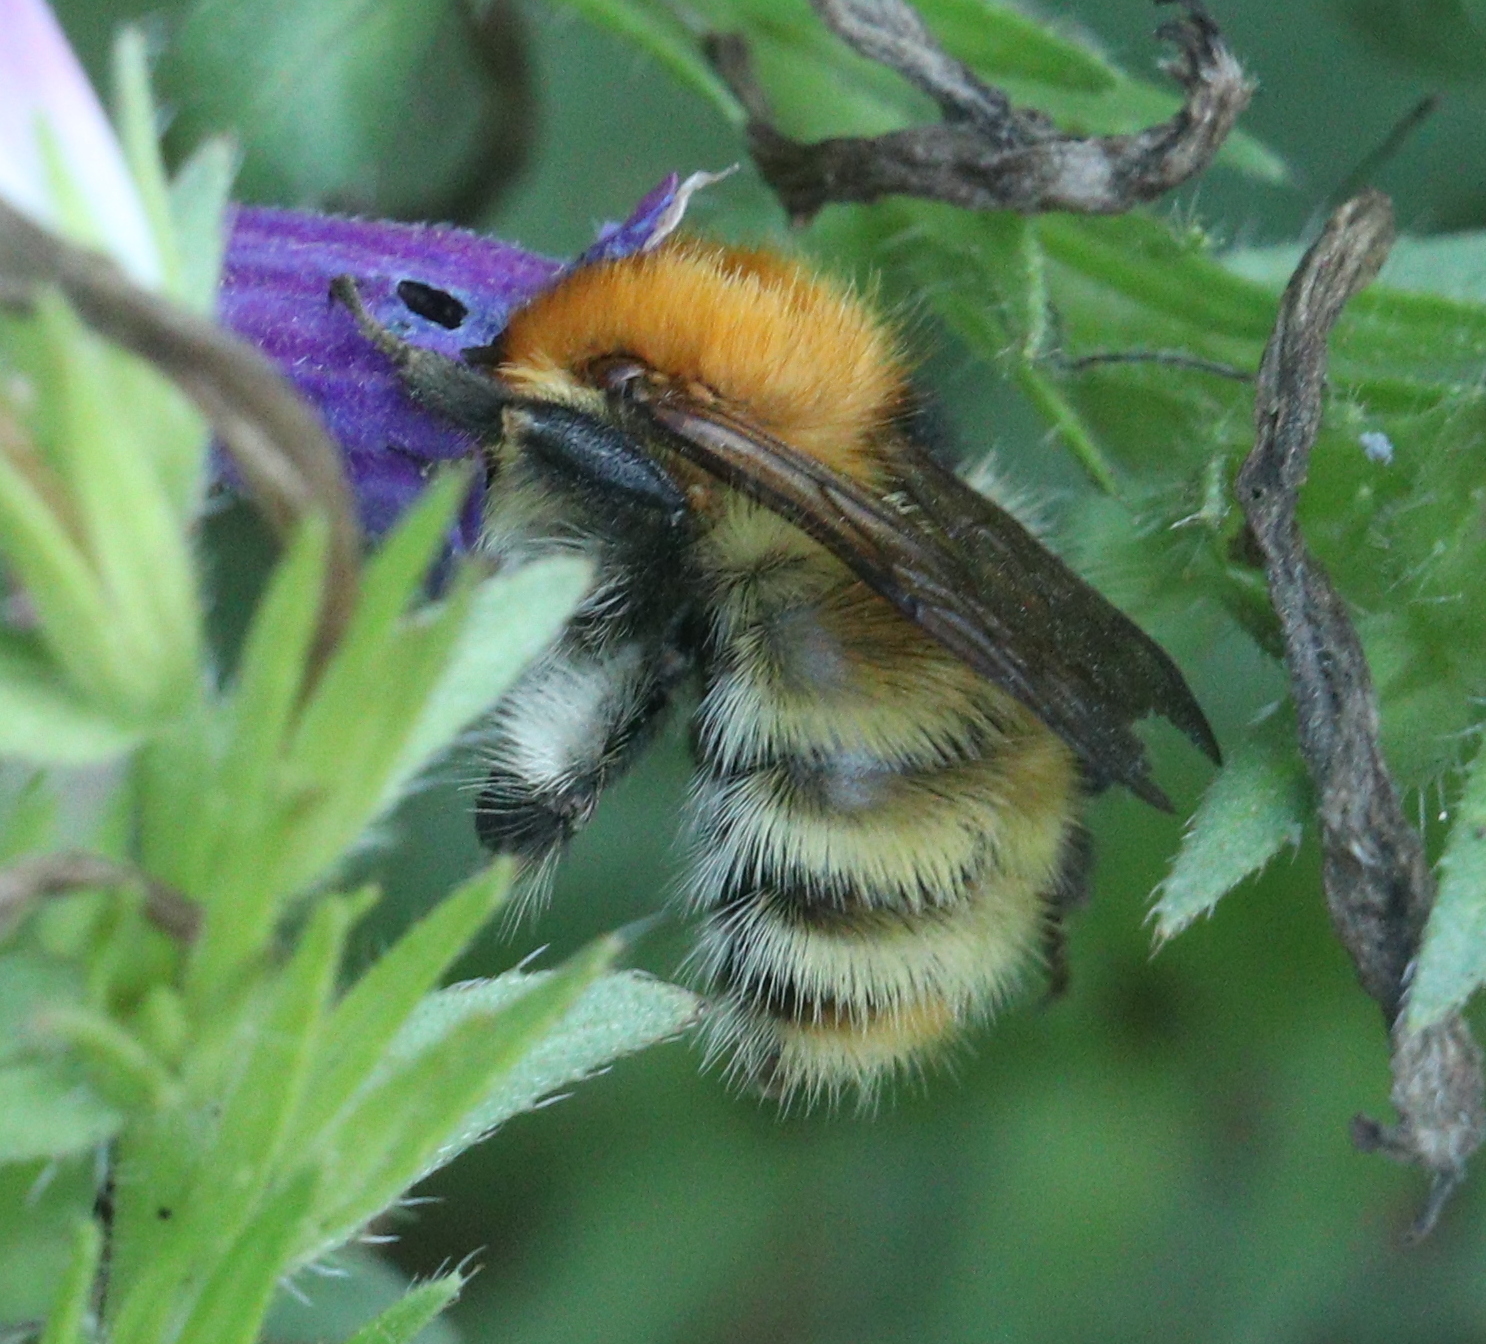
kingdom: Animalia
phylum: Arthropoda
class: Insecta
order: Hymenoptera
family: Apidae
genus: Bombus
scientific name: Bombus pascuorum
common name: Common carder bee
